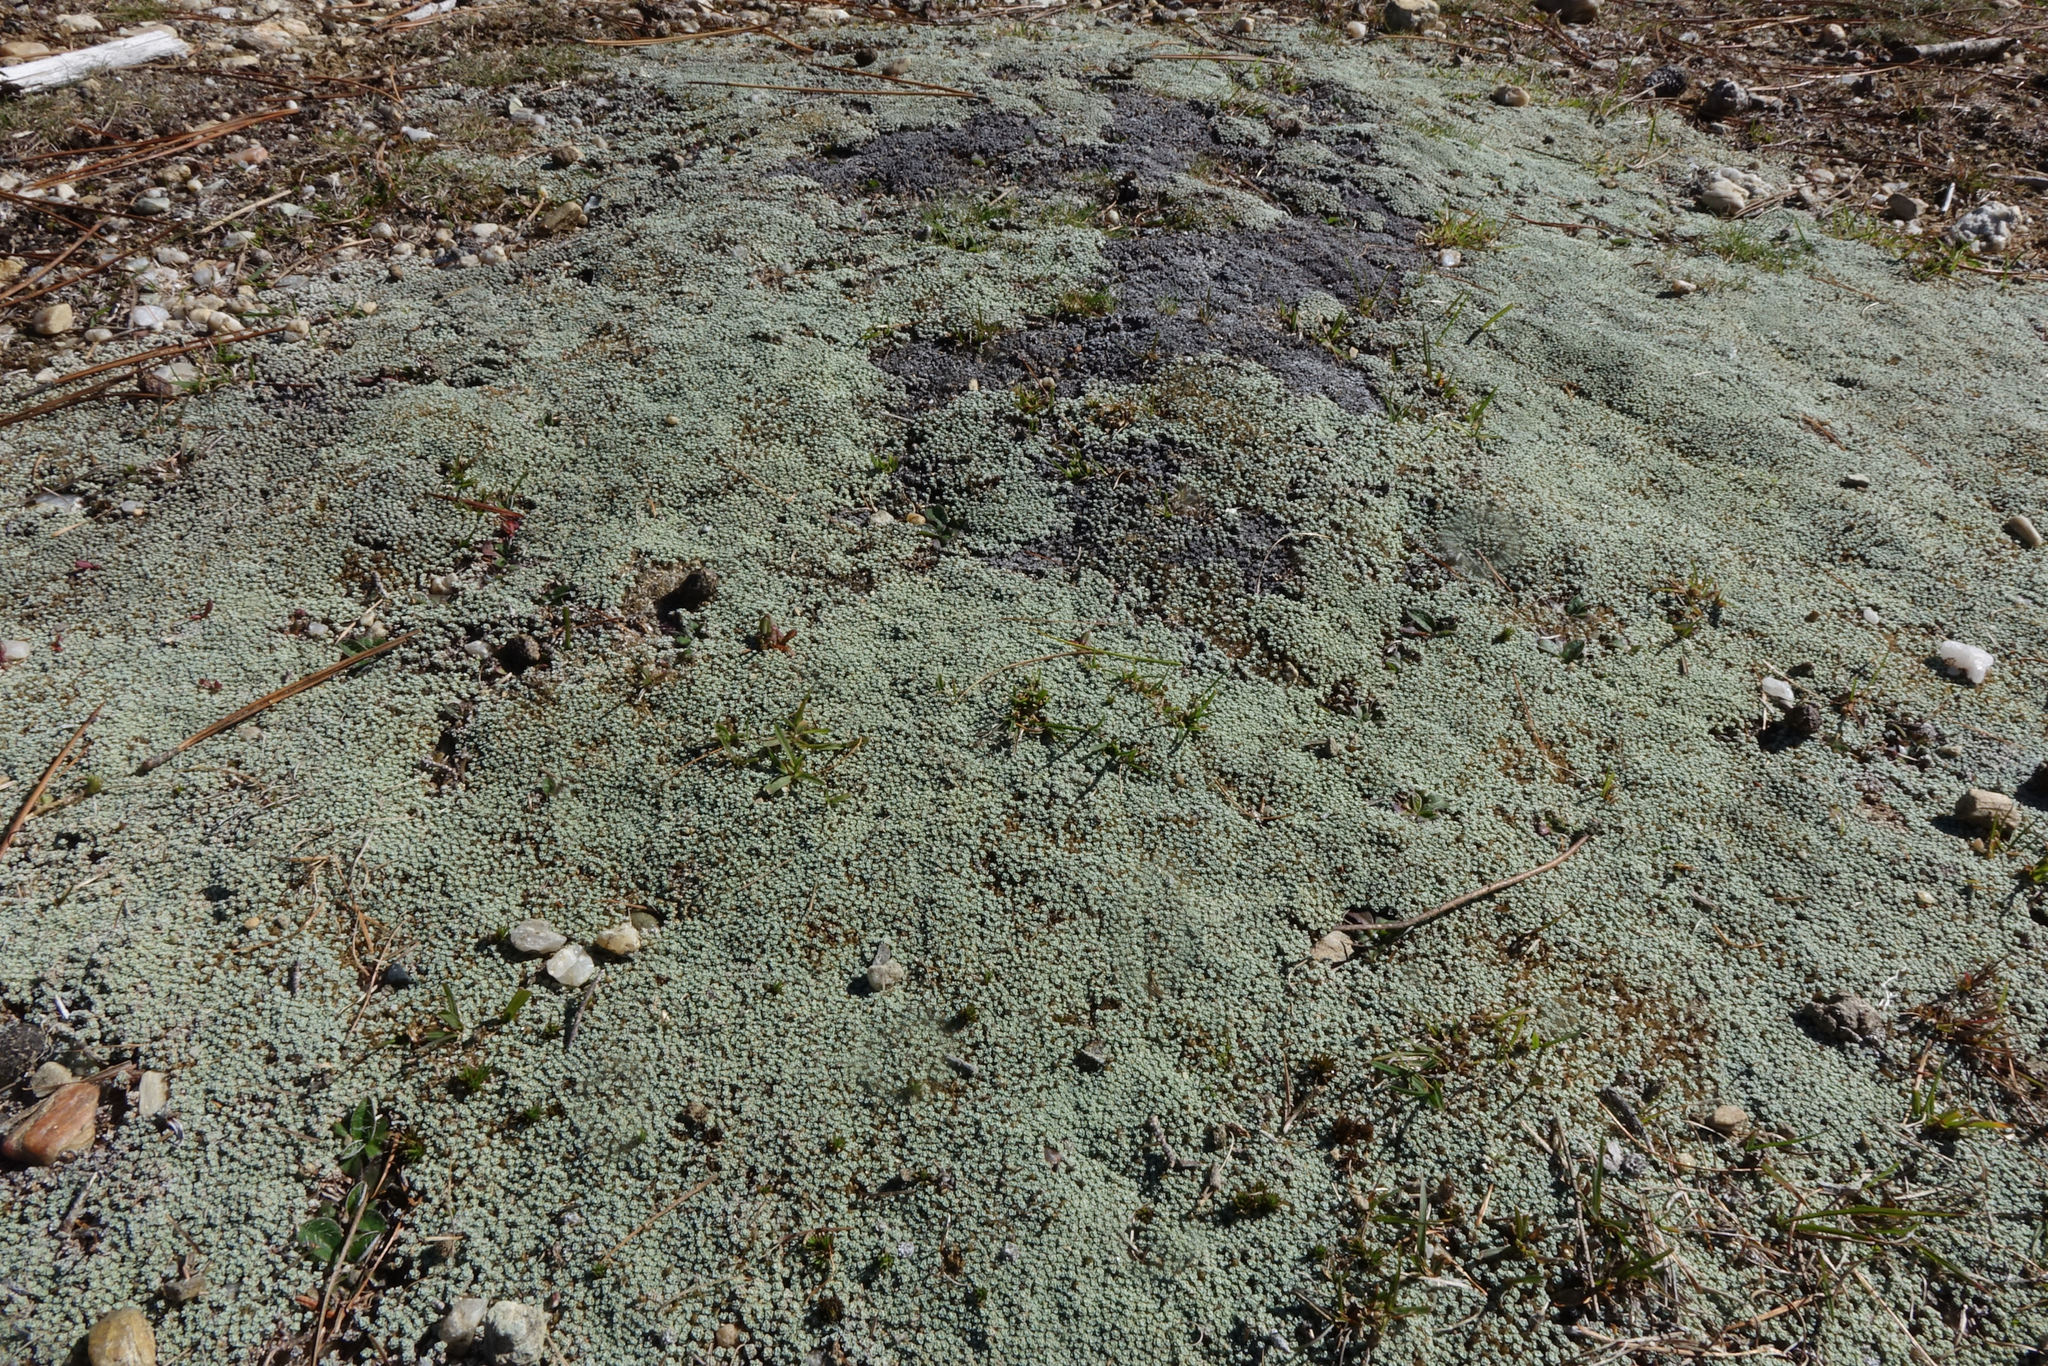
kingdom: Plantae
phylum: Tracheophyta
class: Magnoliopsida
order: Asterales
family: Asteraceae
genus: Raoulia
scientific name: Raoulia australis
